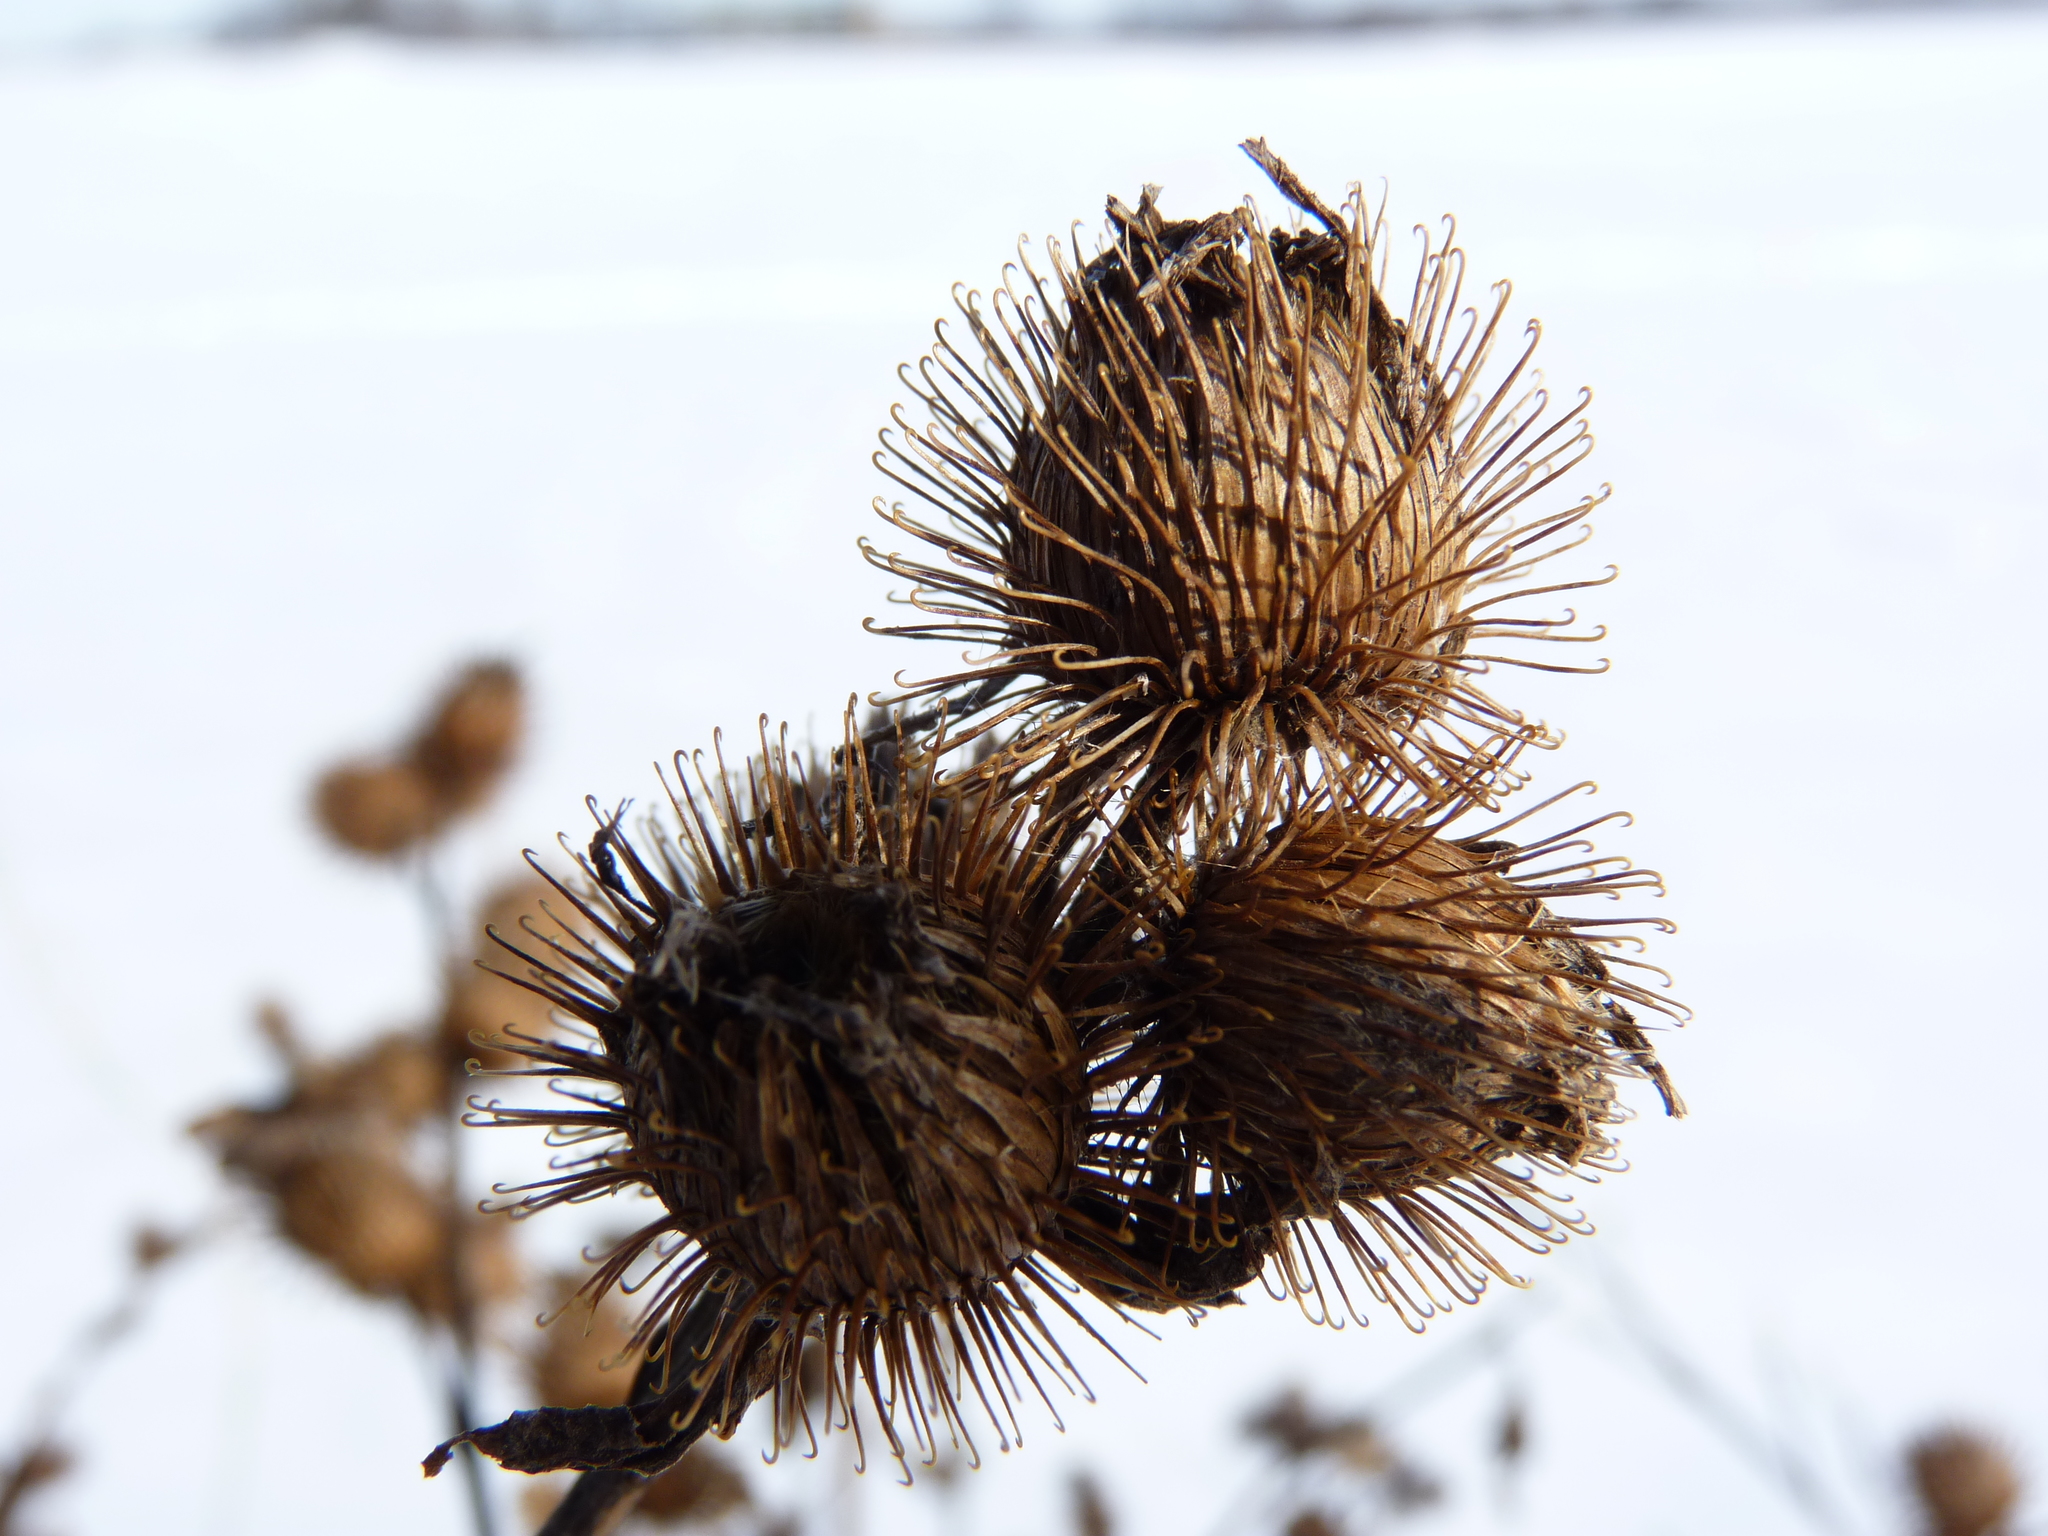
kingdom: Plantae
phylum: Tracheophyta
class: Magnoliopsida
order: Asterales
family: Asteraceae
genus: Arctium
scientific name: Arctium lappa
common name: Greater burdock
